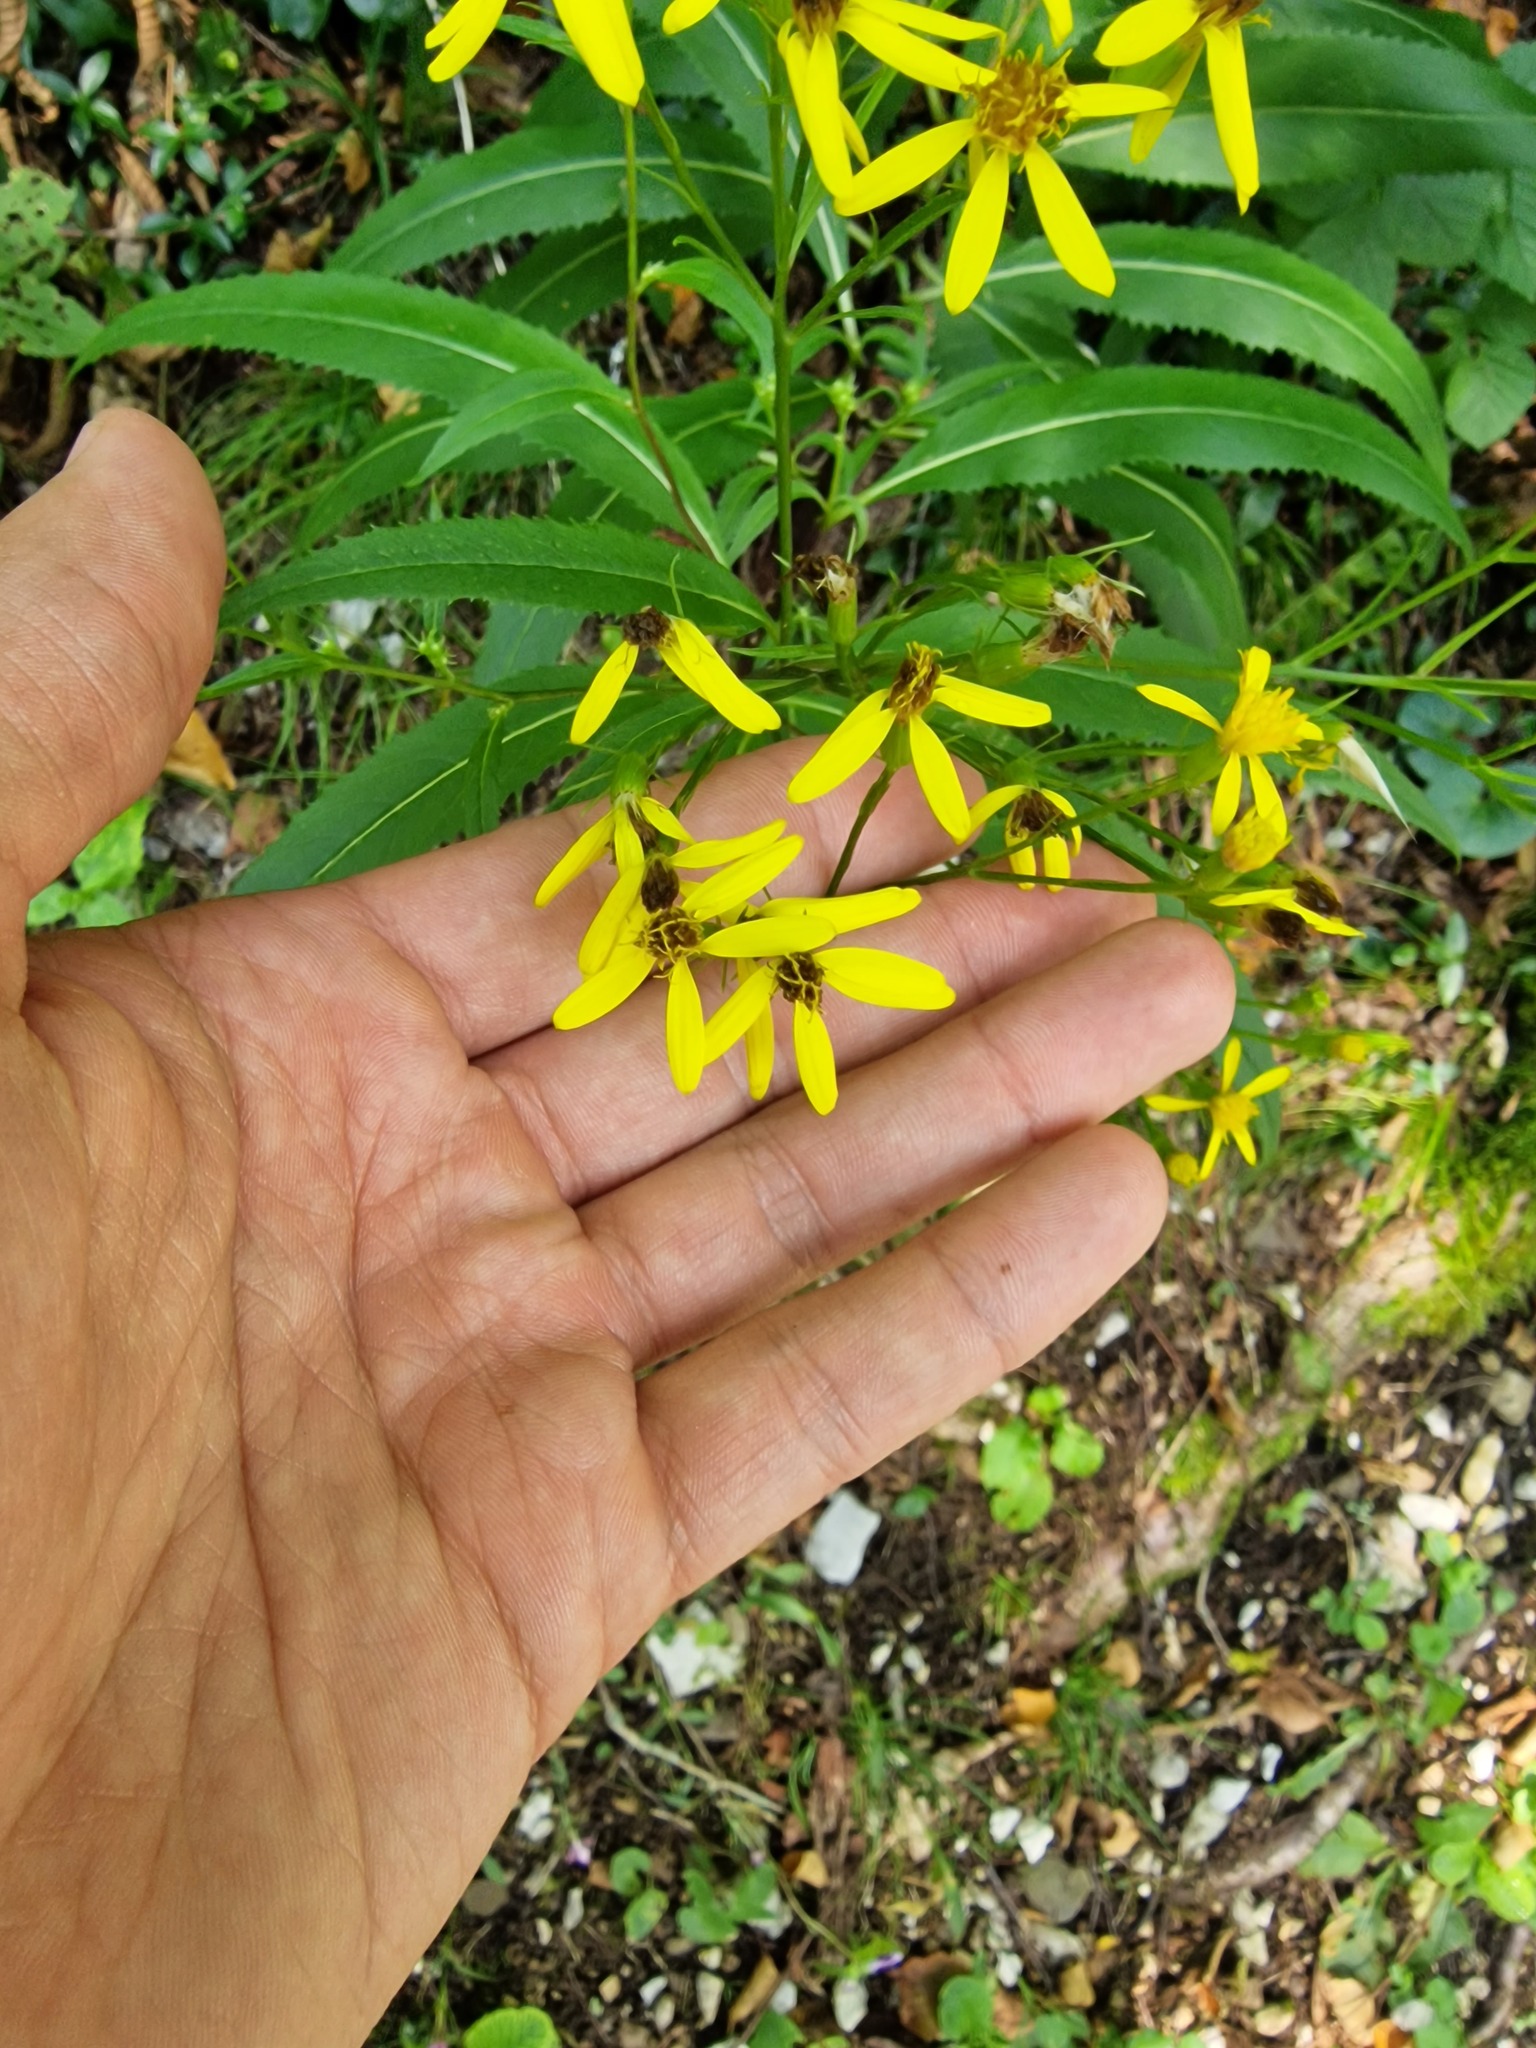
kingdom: Plantae
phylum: Tracheophyta
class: Magnoliopsida
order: Asterales
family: Asteraceae
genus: Senecio
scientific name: Senecio ovatus
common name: Wood ragwort
